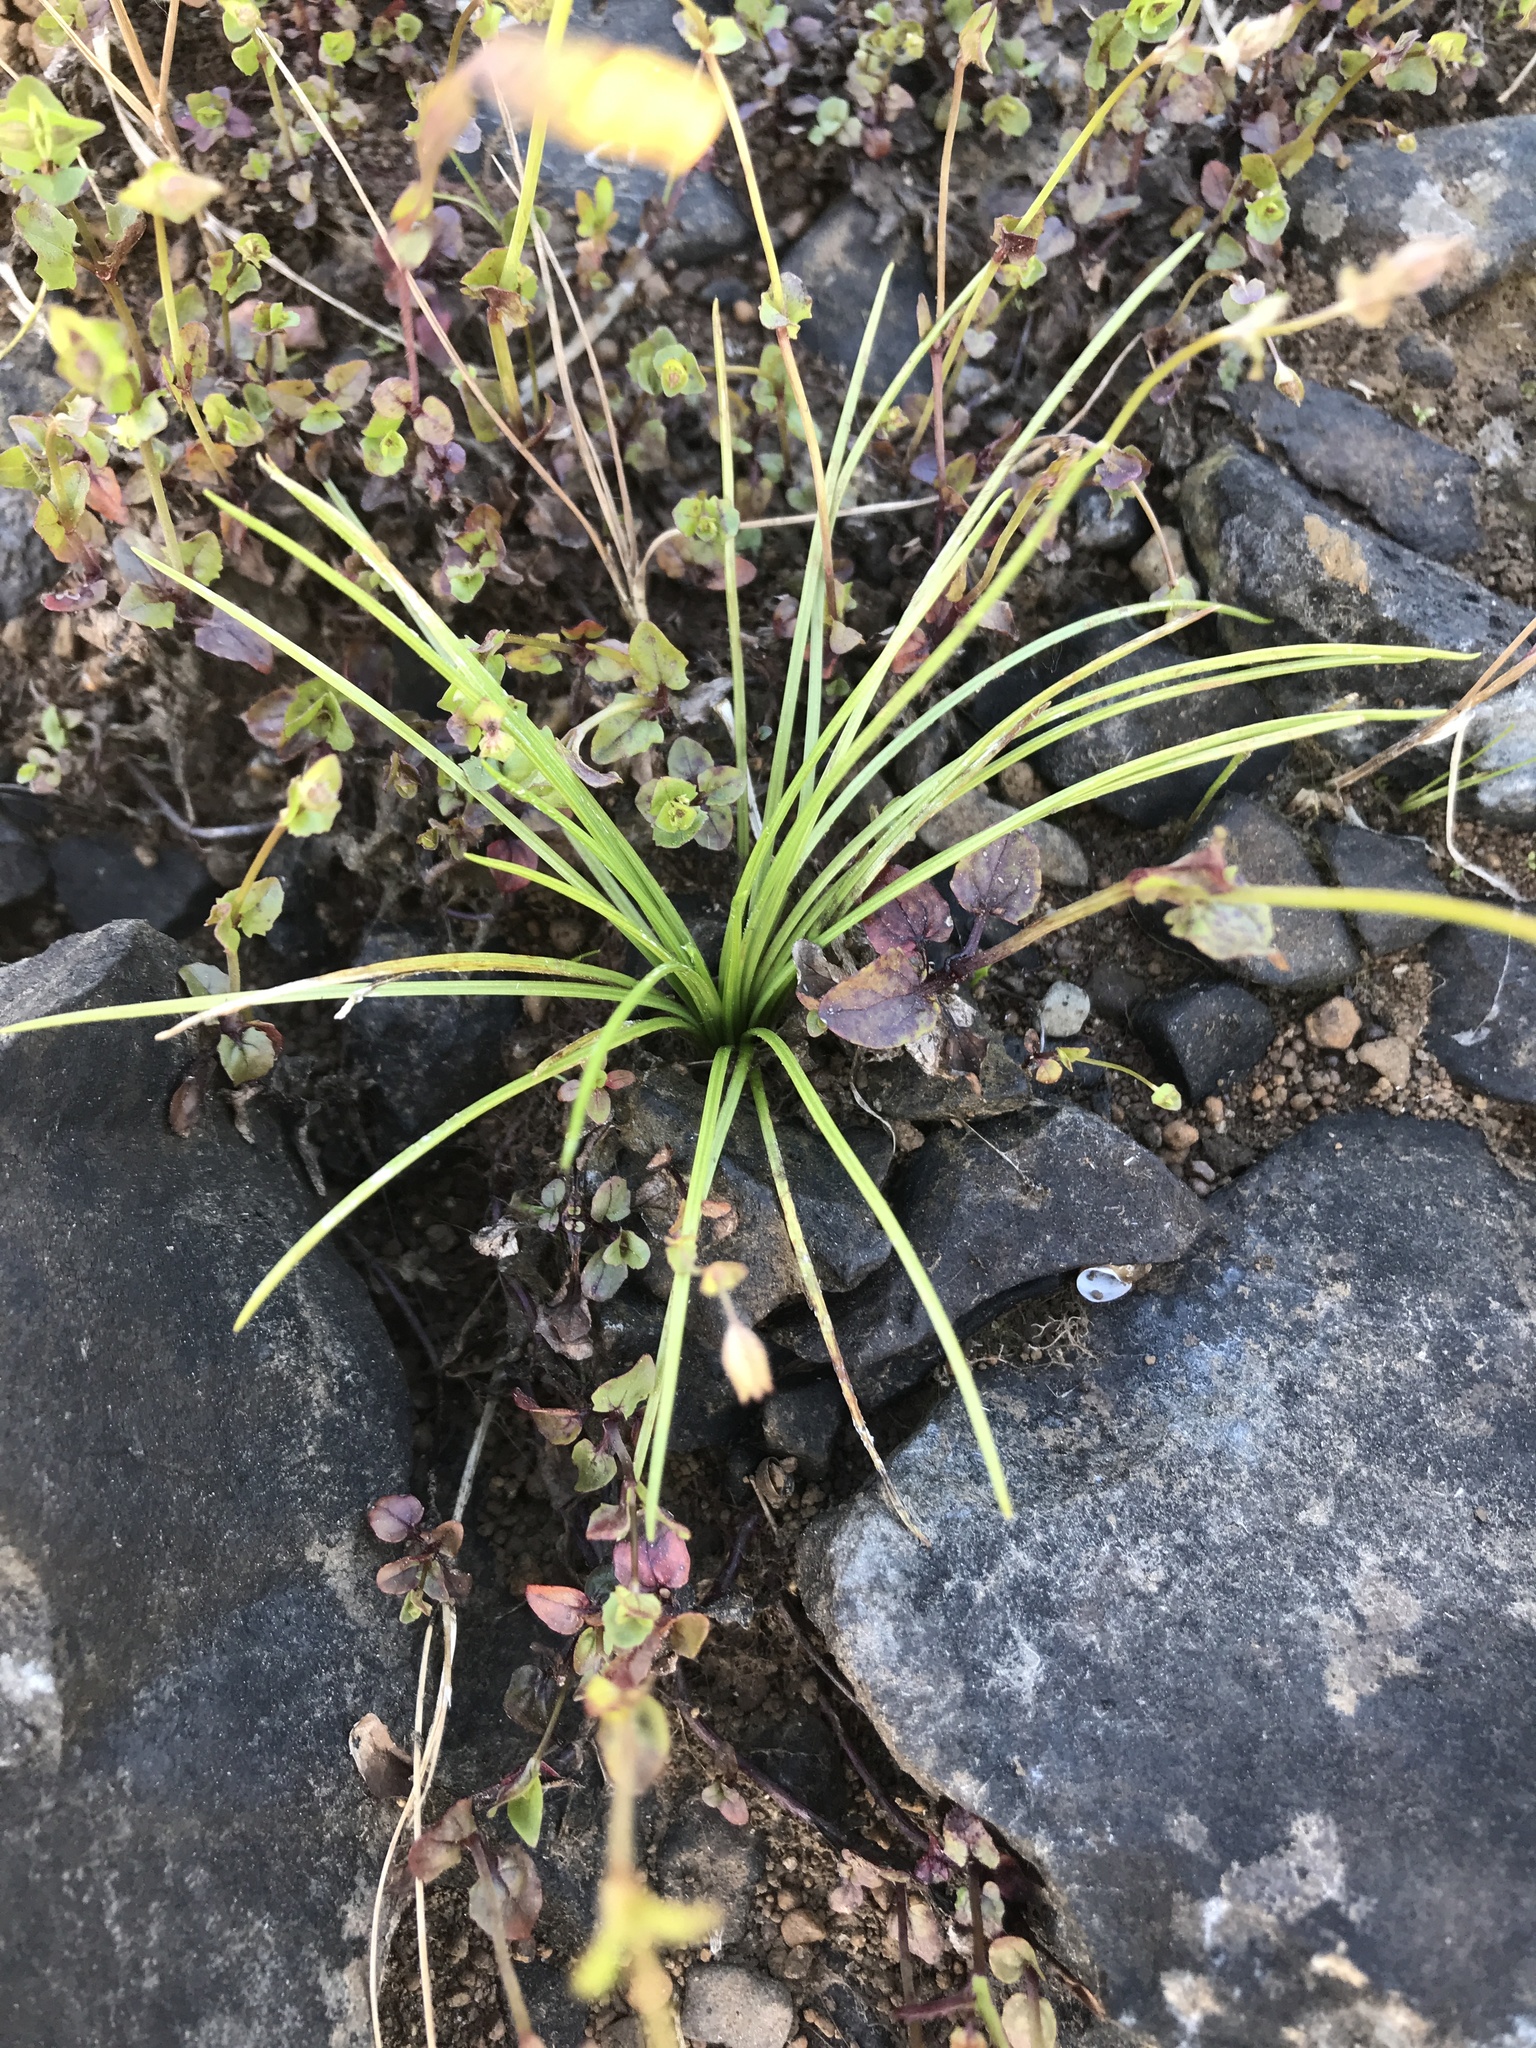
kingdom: Plantae
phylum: Tracheophyta
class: Lycopodiopsida
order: Isoetales
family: Isoetaceae
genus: Isoetes
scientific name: Isoetes nuttallii
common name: Nuttall's quillwort
